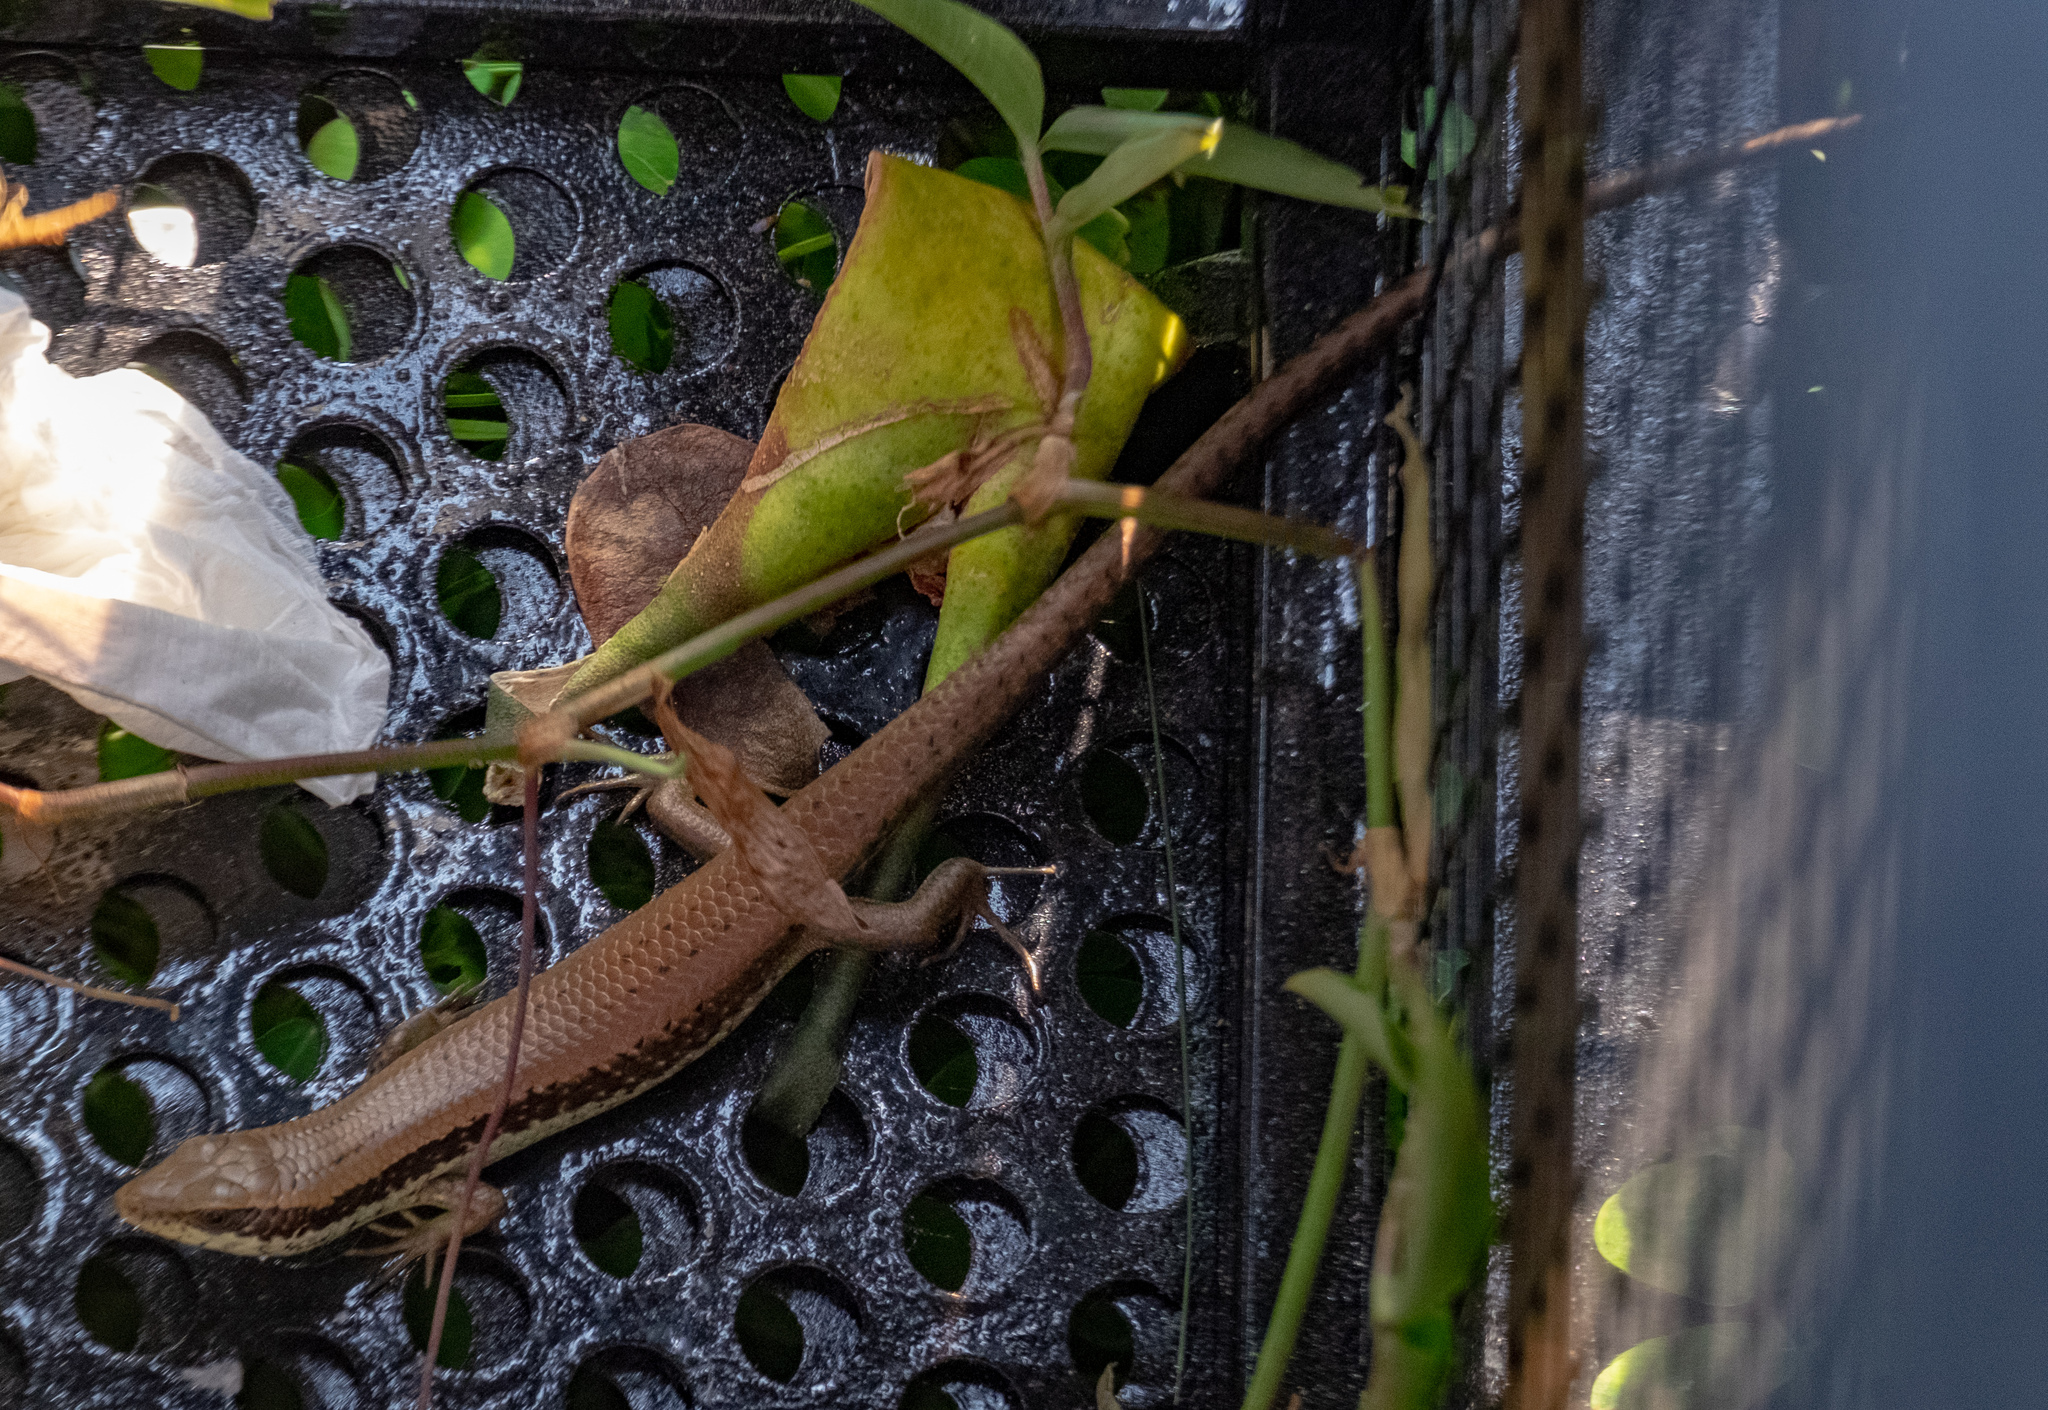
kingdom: Animalia
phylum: Chordata
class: Squamata
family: Scincidae
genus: Eutropis
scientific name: Eutropis longicaudata
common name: Long-tailed sun skink
